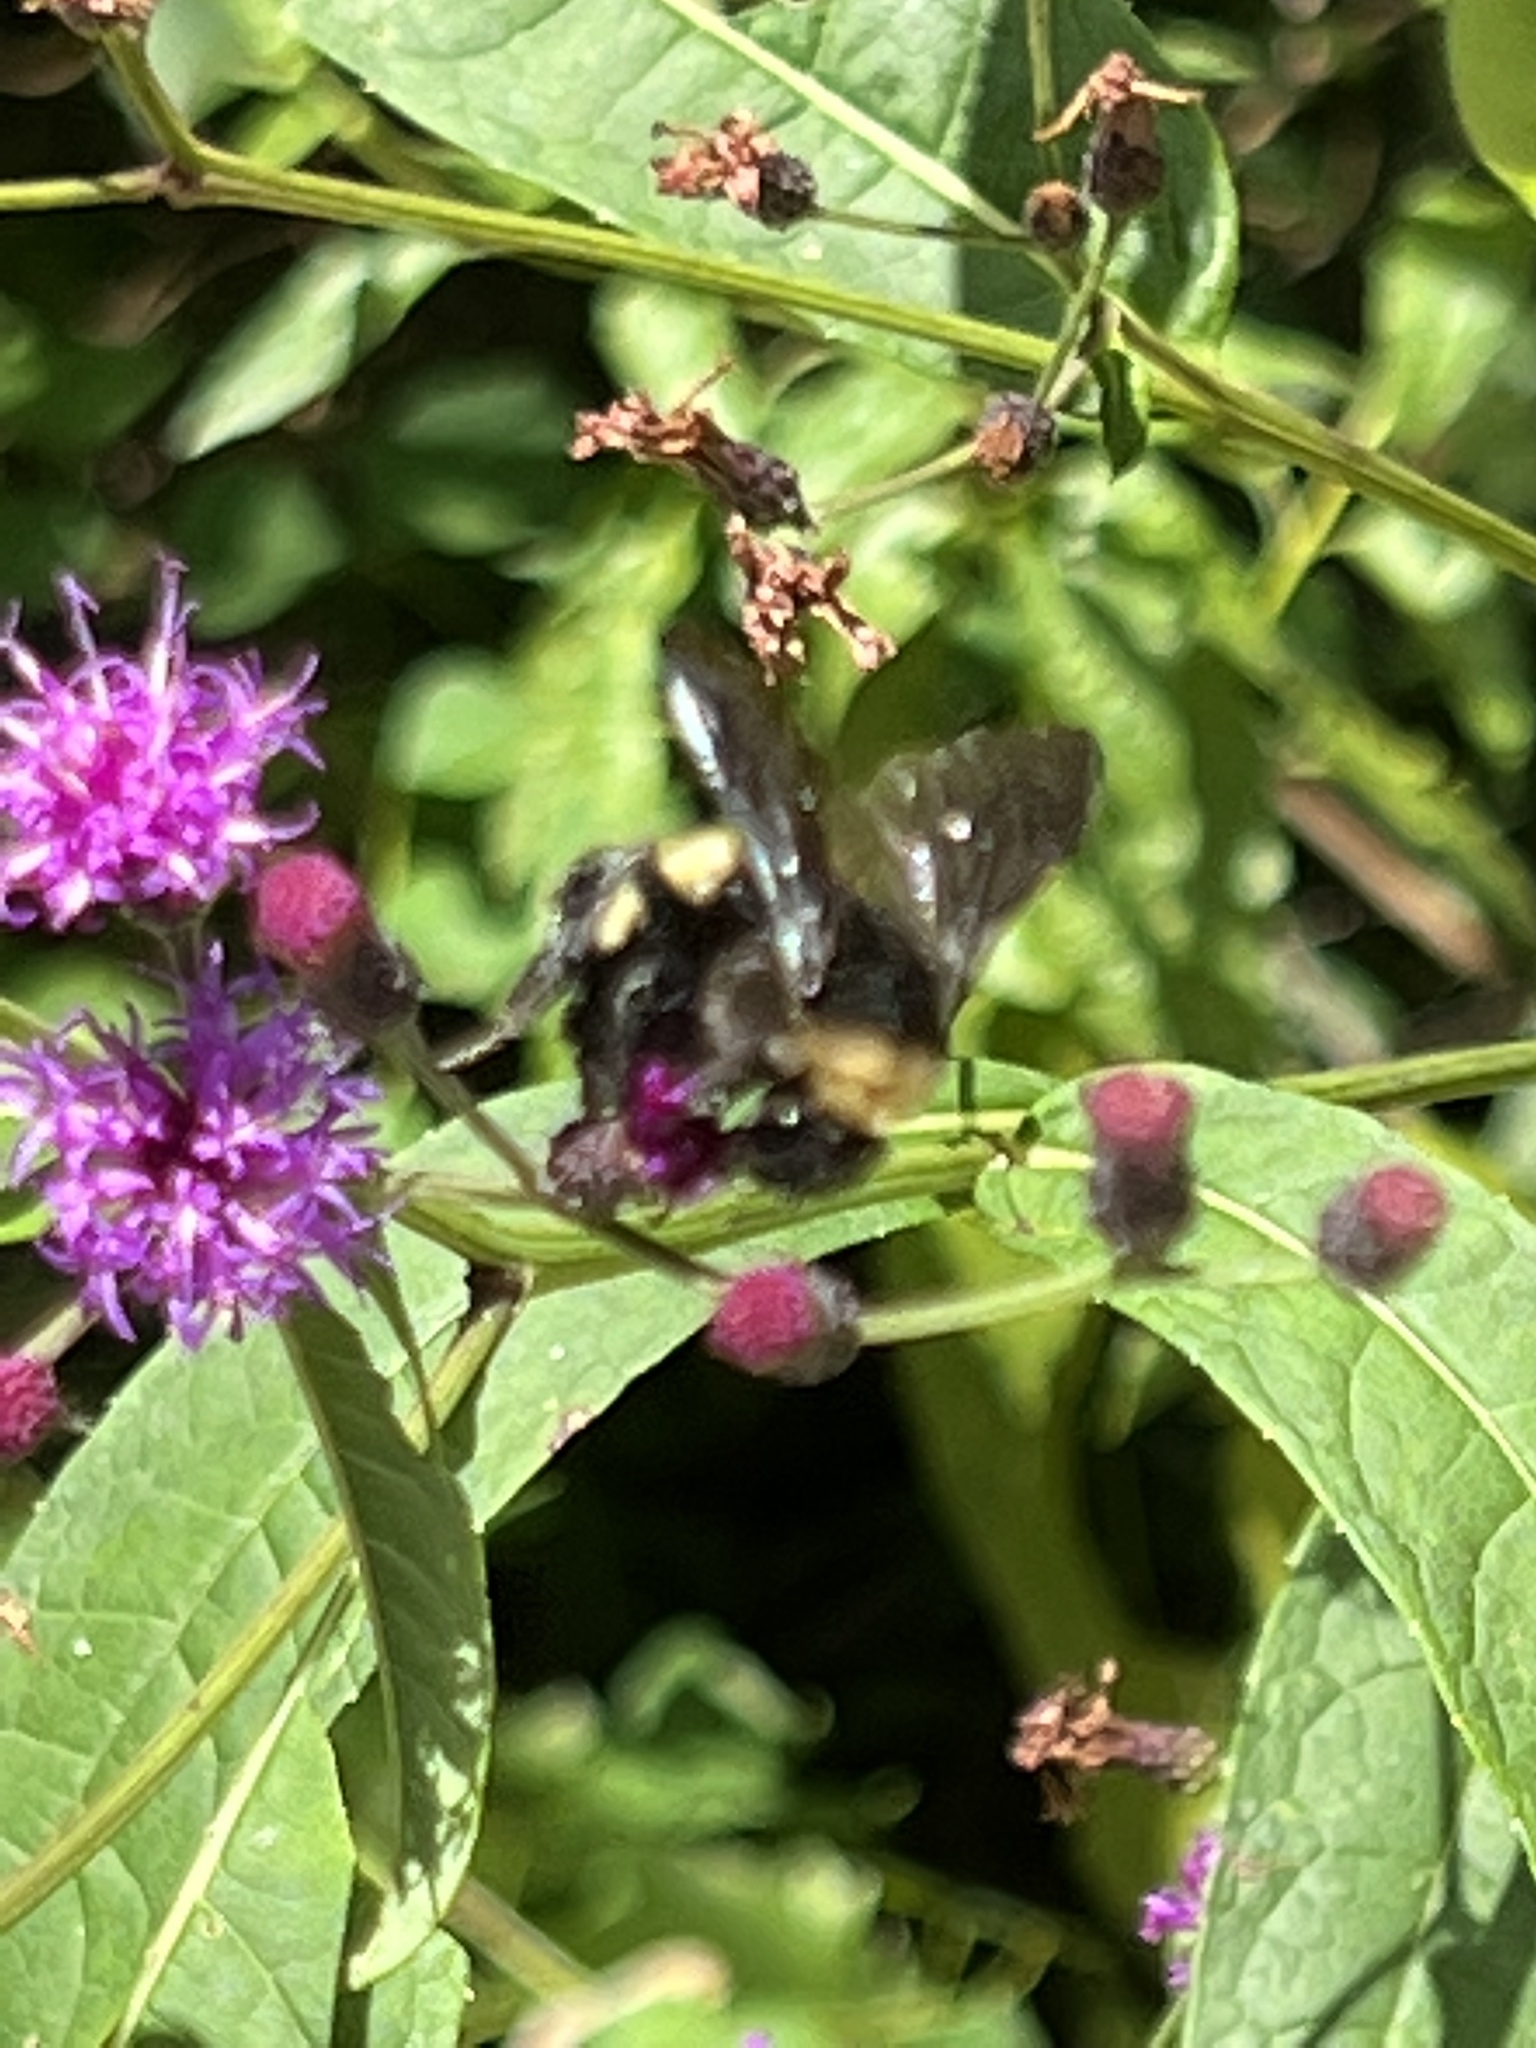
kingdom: Animalia
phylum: Arthropoda
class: Insecta
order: Hymenoptera
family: Apidae
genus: Bombus
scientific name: Bombus pensylvanicus
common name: Bumble bee
